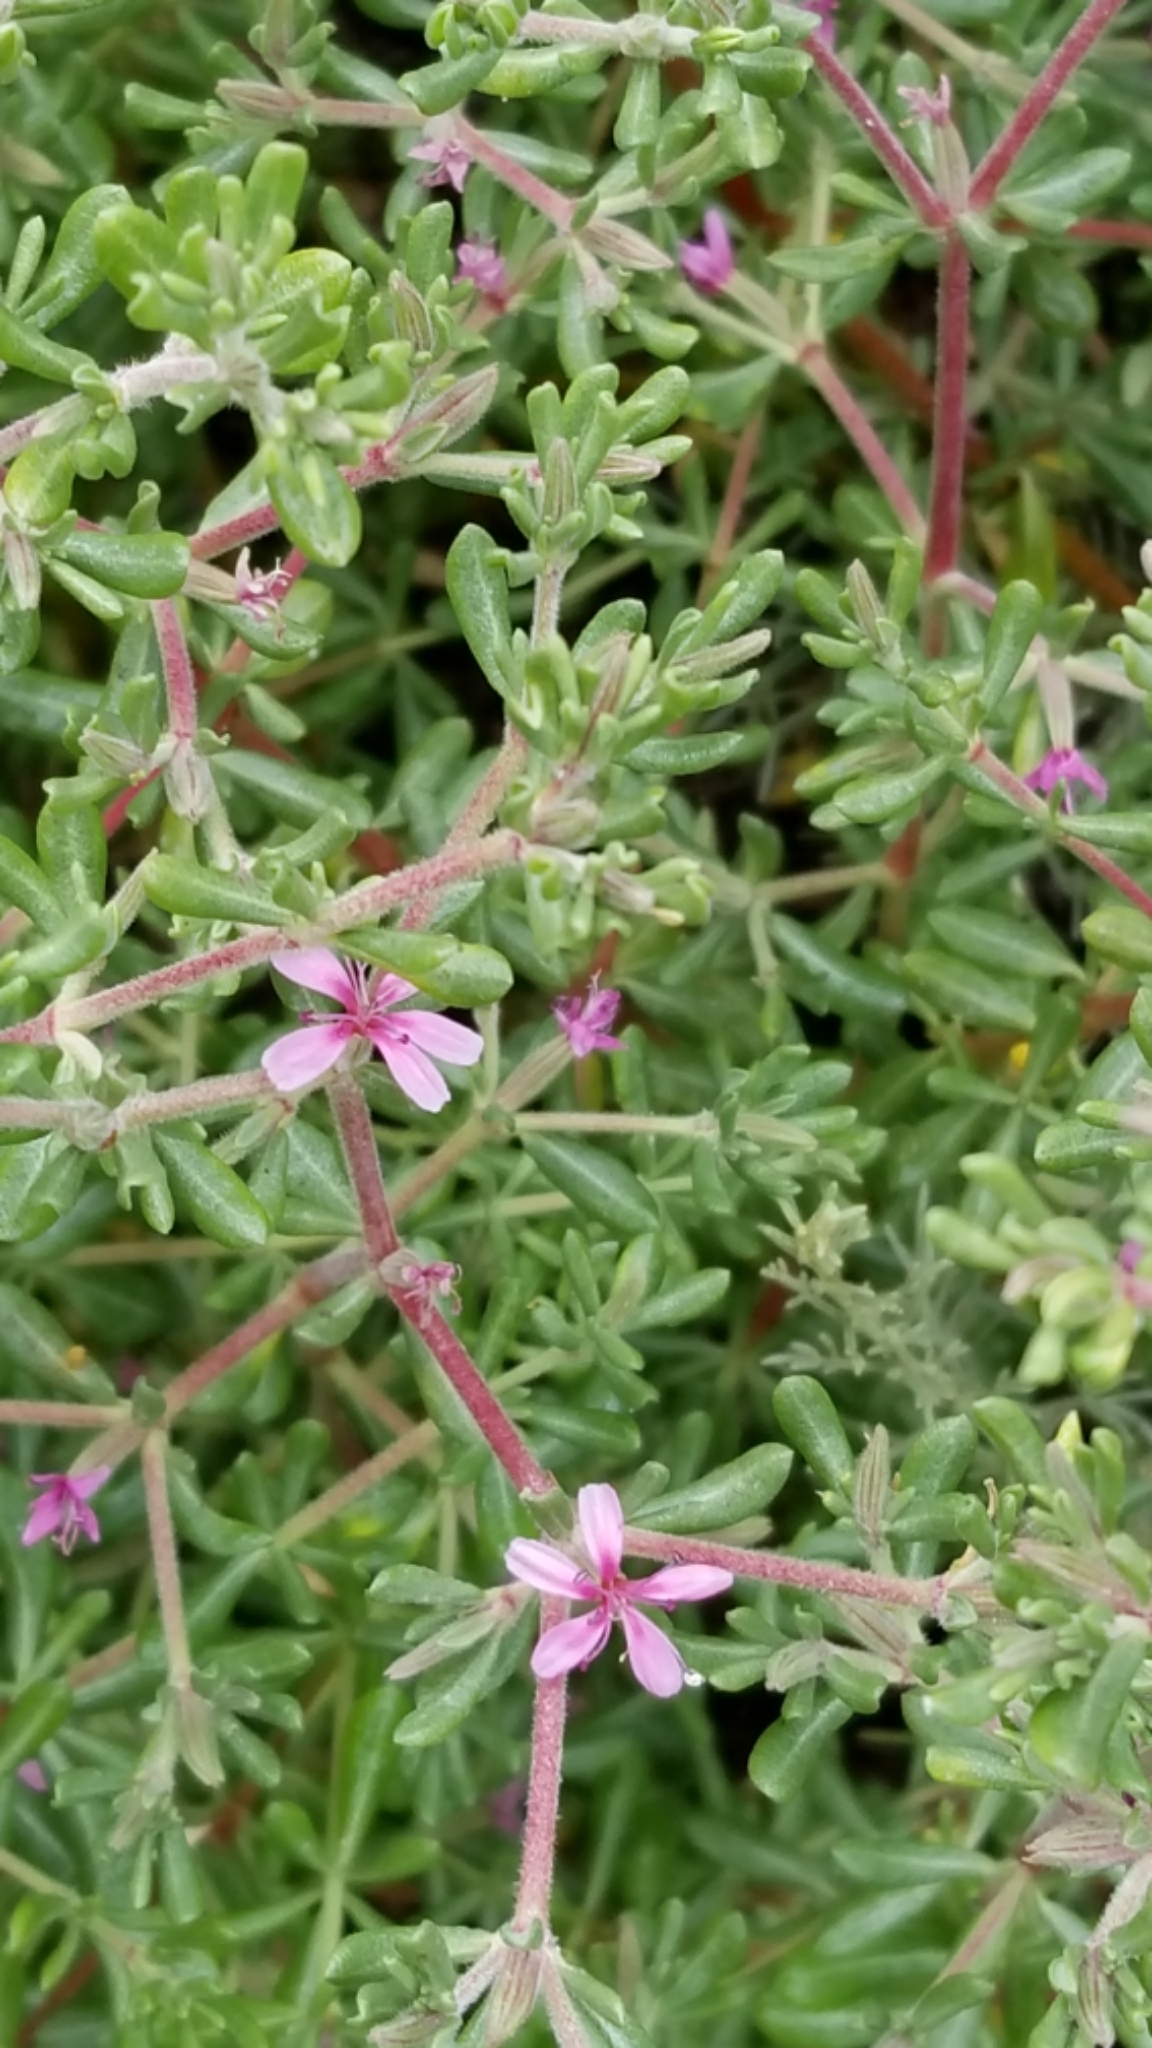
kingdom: Plantae
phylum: Tracheophyta
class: Magnoliopsida
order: Caryophyllales
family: Frankeniaceae
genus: Frankenia
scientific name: Frankenia salina
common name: Alkali seaheath
